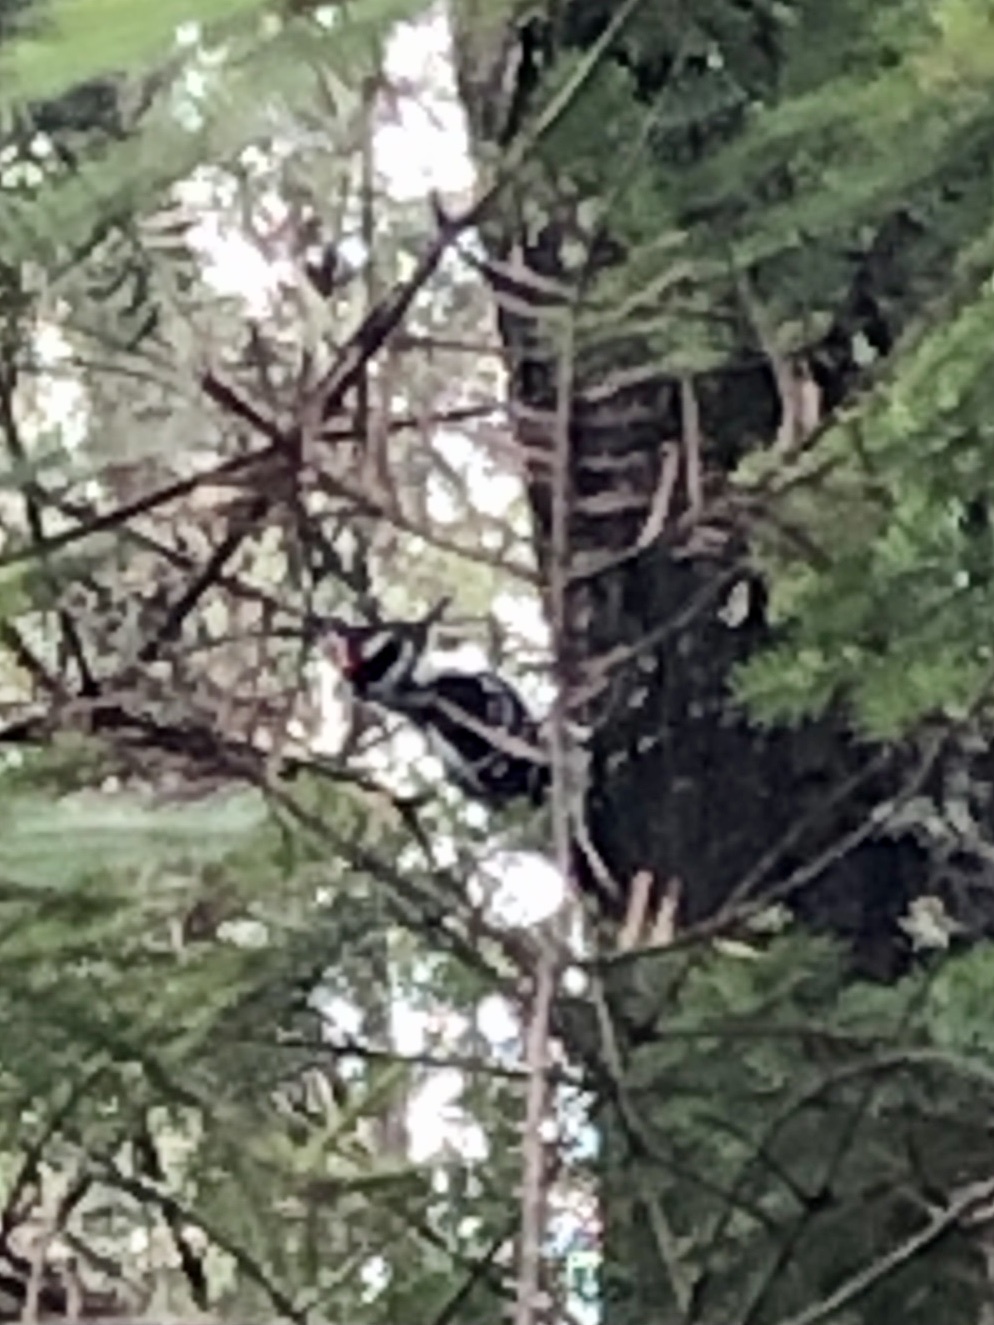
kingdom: Animalia
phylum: Chordata
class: Aves
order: Piciformes
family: Picidae
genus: Leuconotopicus
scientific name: Leuconotopicus villosus
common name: Hairy woodpecker
